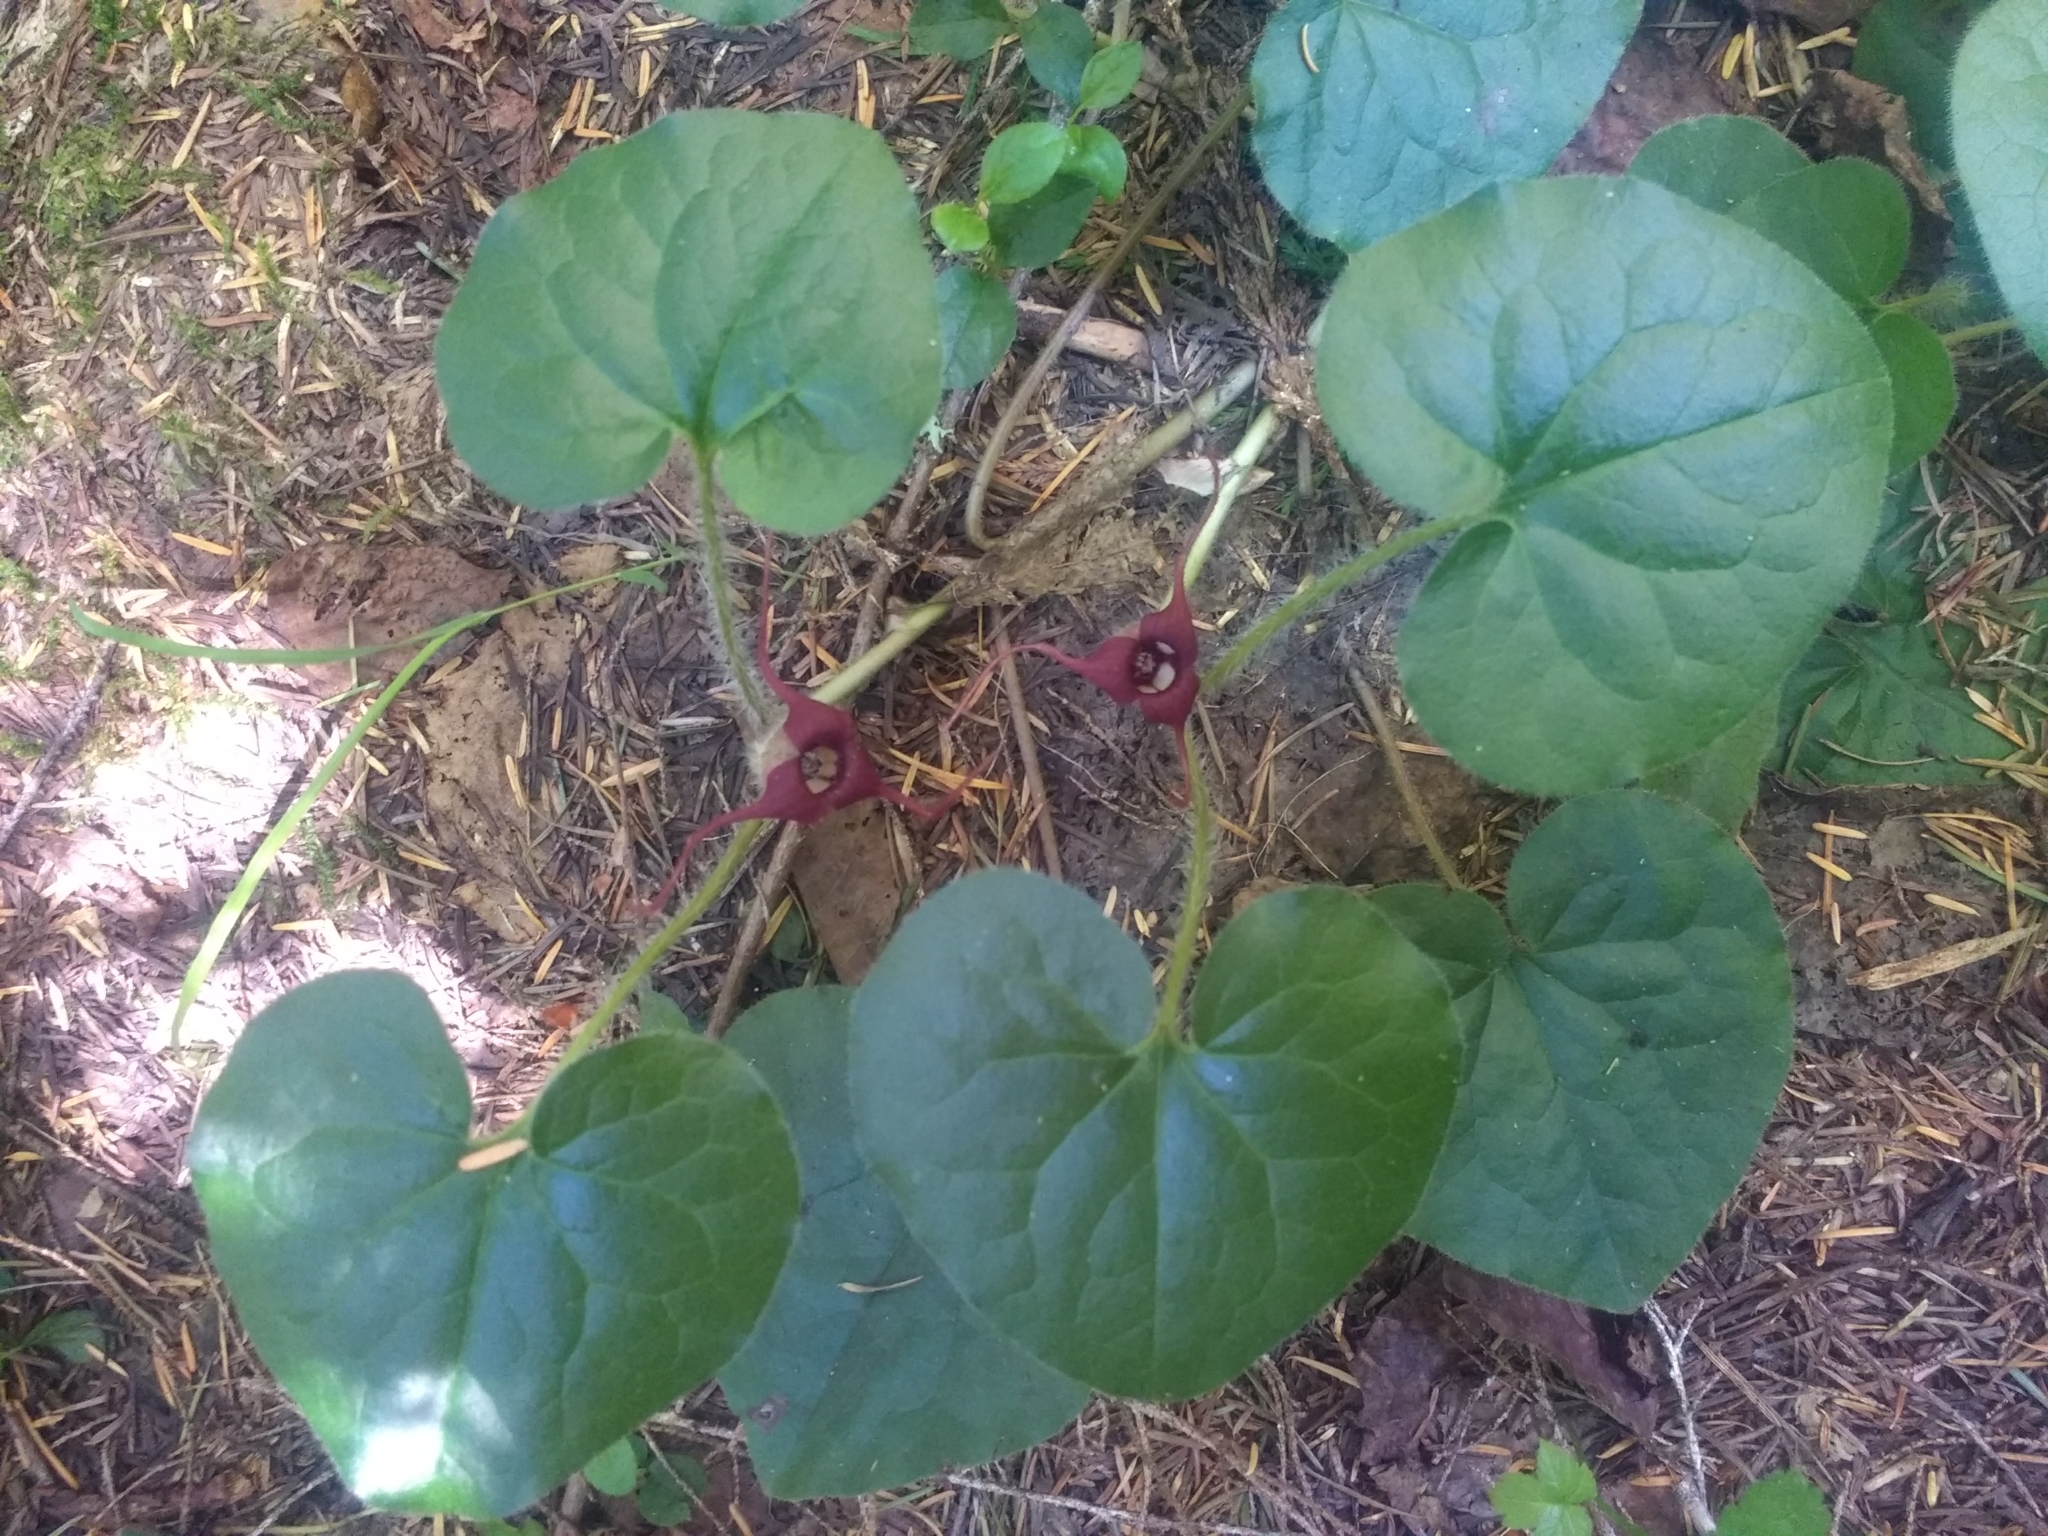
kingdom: Plantae
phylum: Tracheophyta
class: Magnoliopsida
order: Piperales
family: Aristolochiaceae
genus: Asarum
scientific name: Asarum caudatum
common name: Wild ginger
